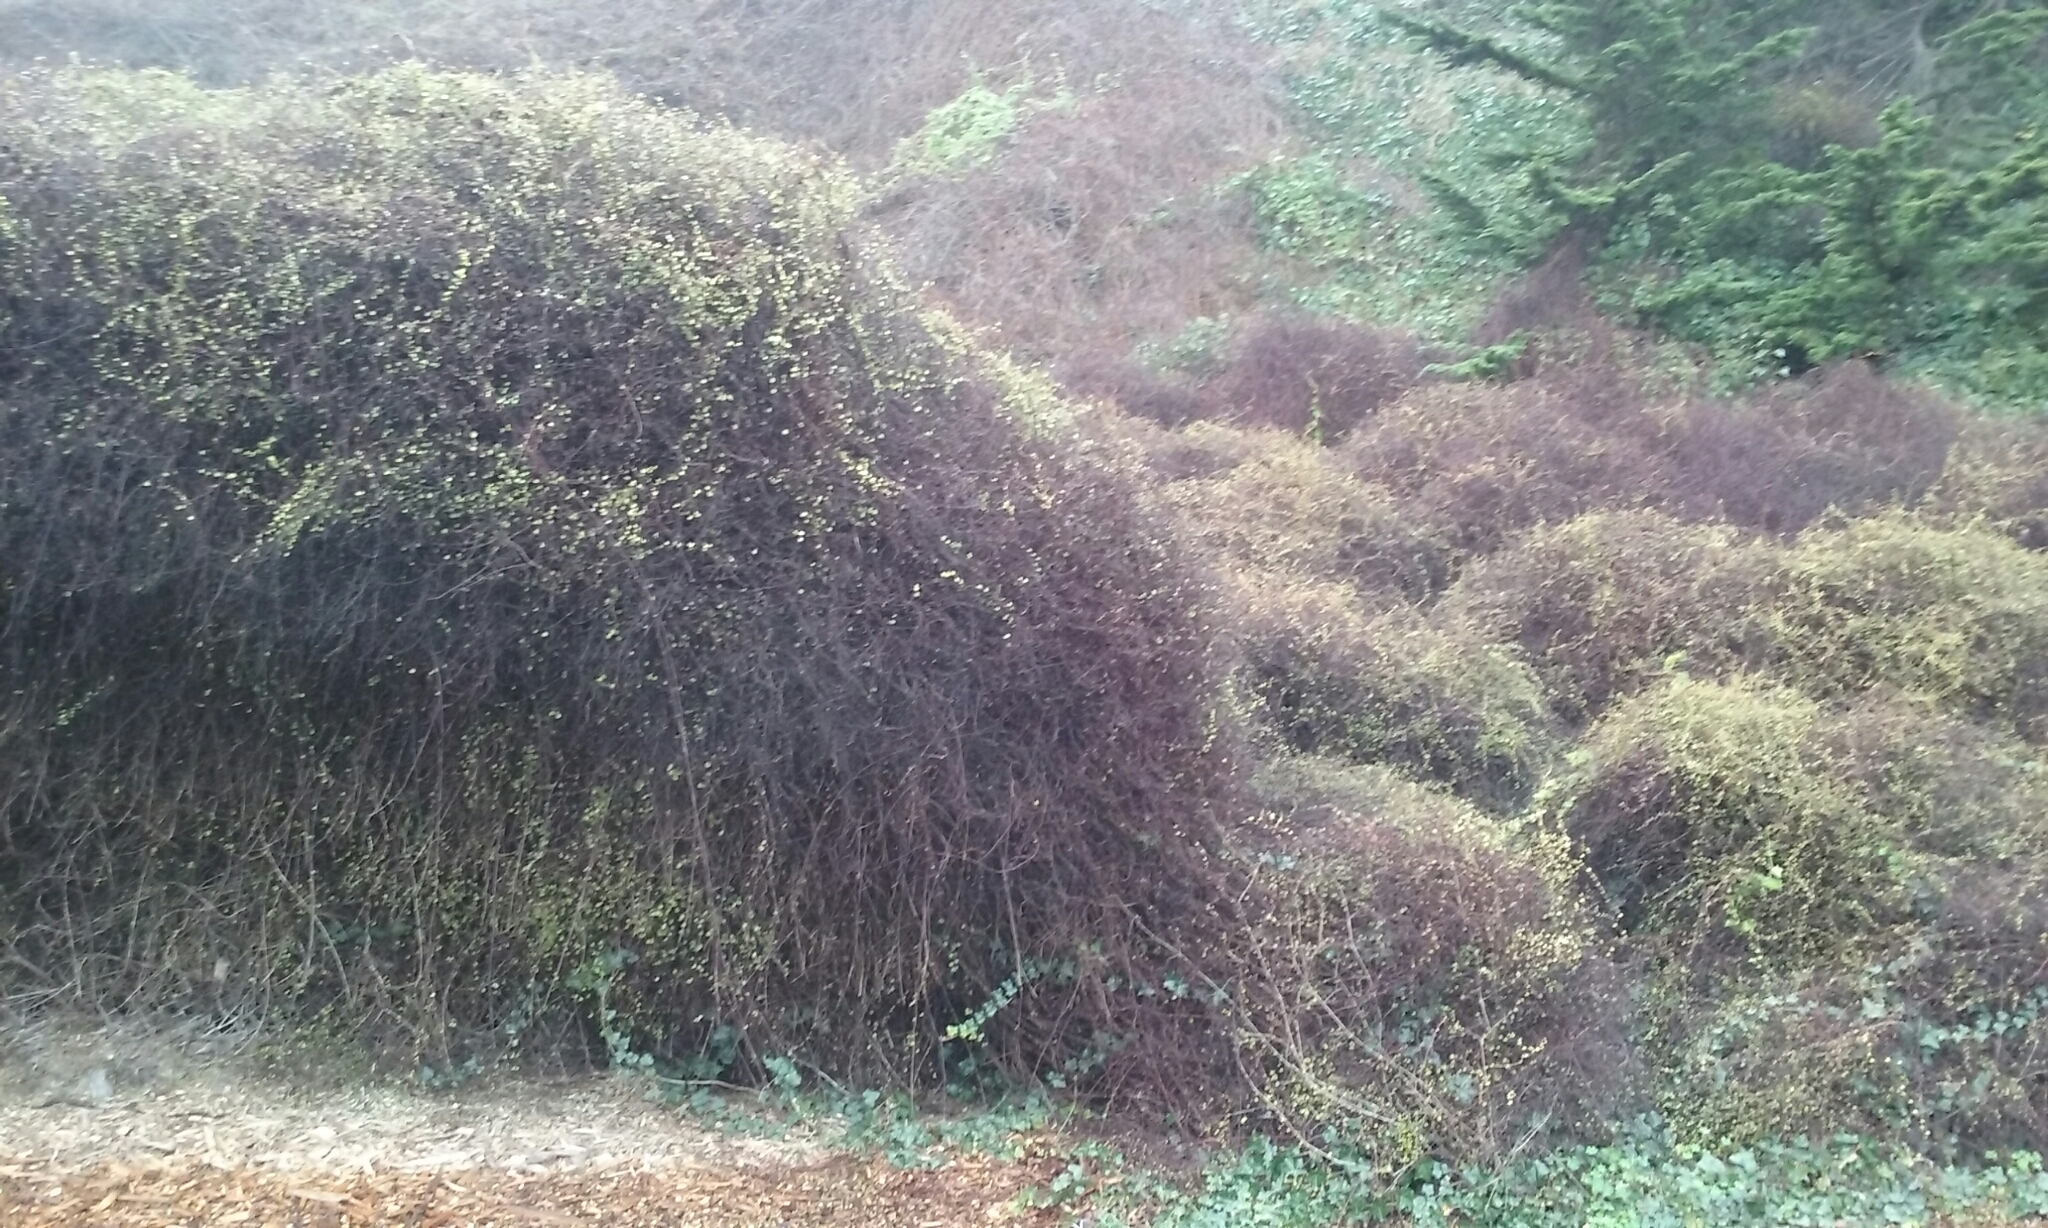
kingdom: Plantae
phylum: Tracheophyta
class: Magnoliopsida
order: Caryophyllales
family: Polygonaceae
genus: Muehlenbeckia
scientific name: Muehlenbeckia complexa
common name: Wireplant
